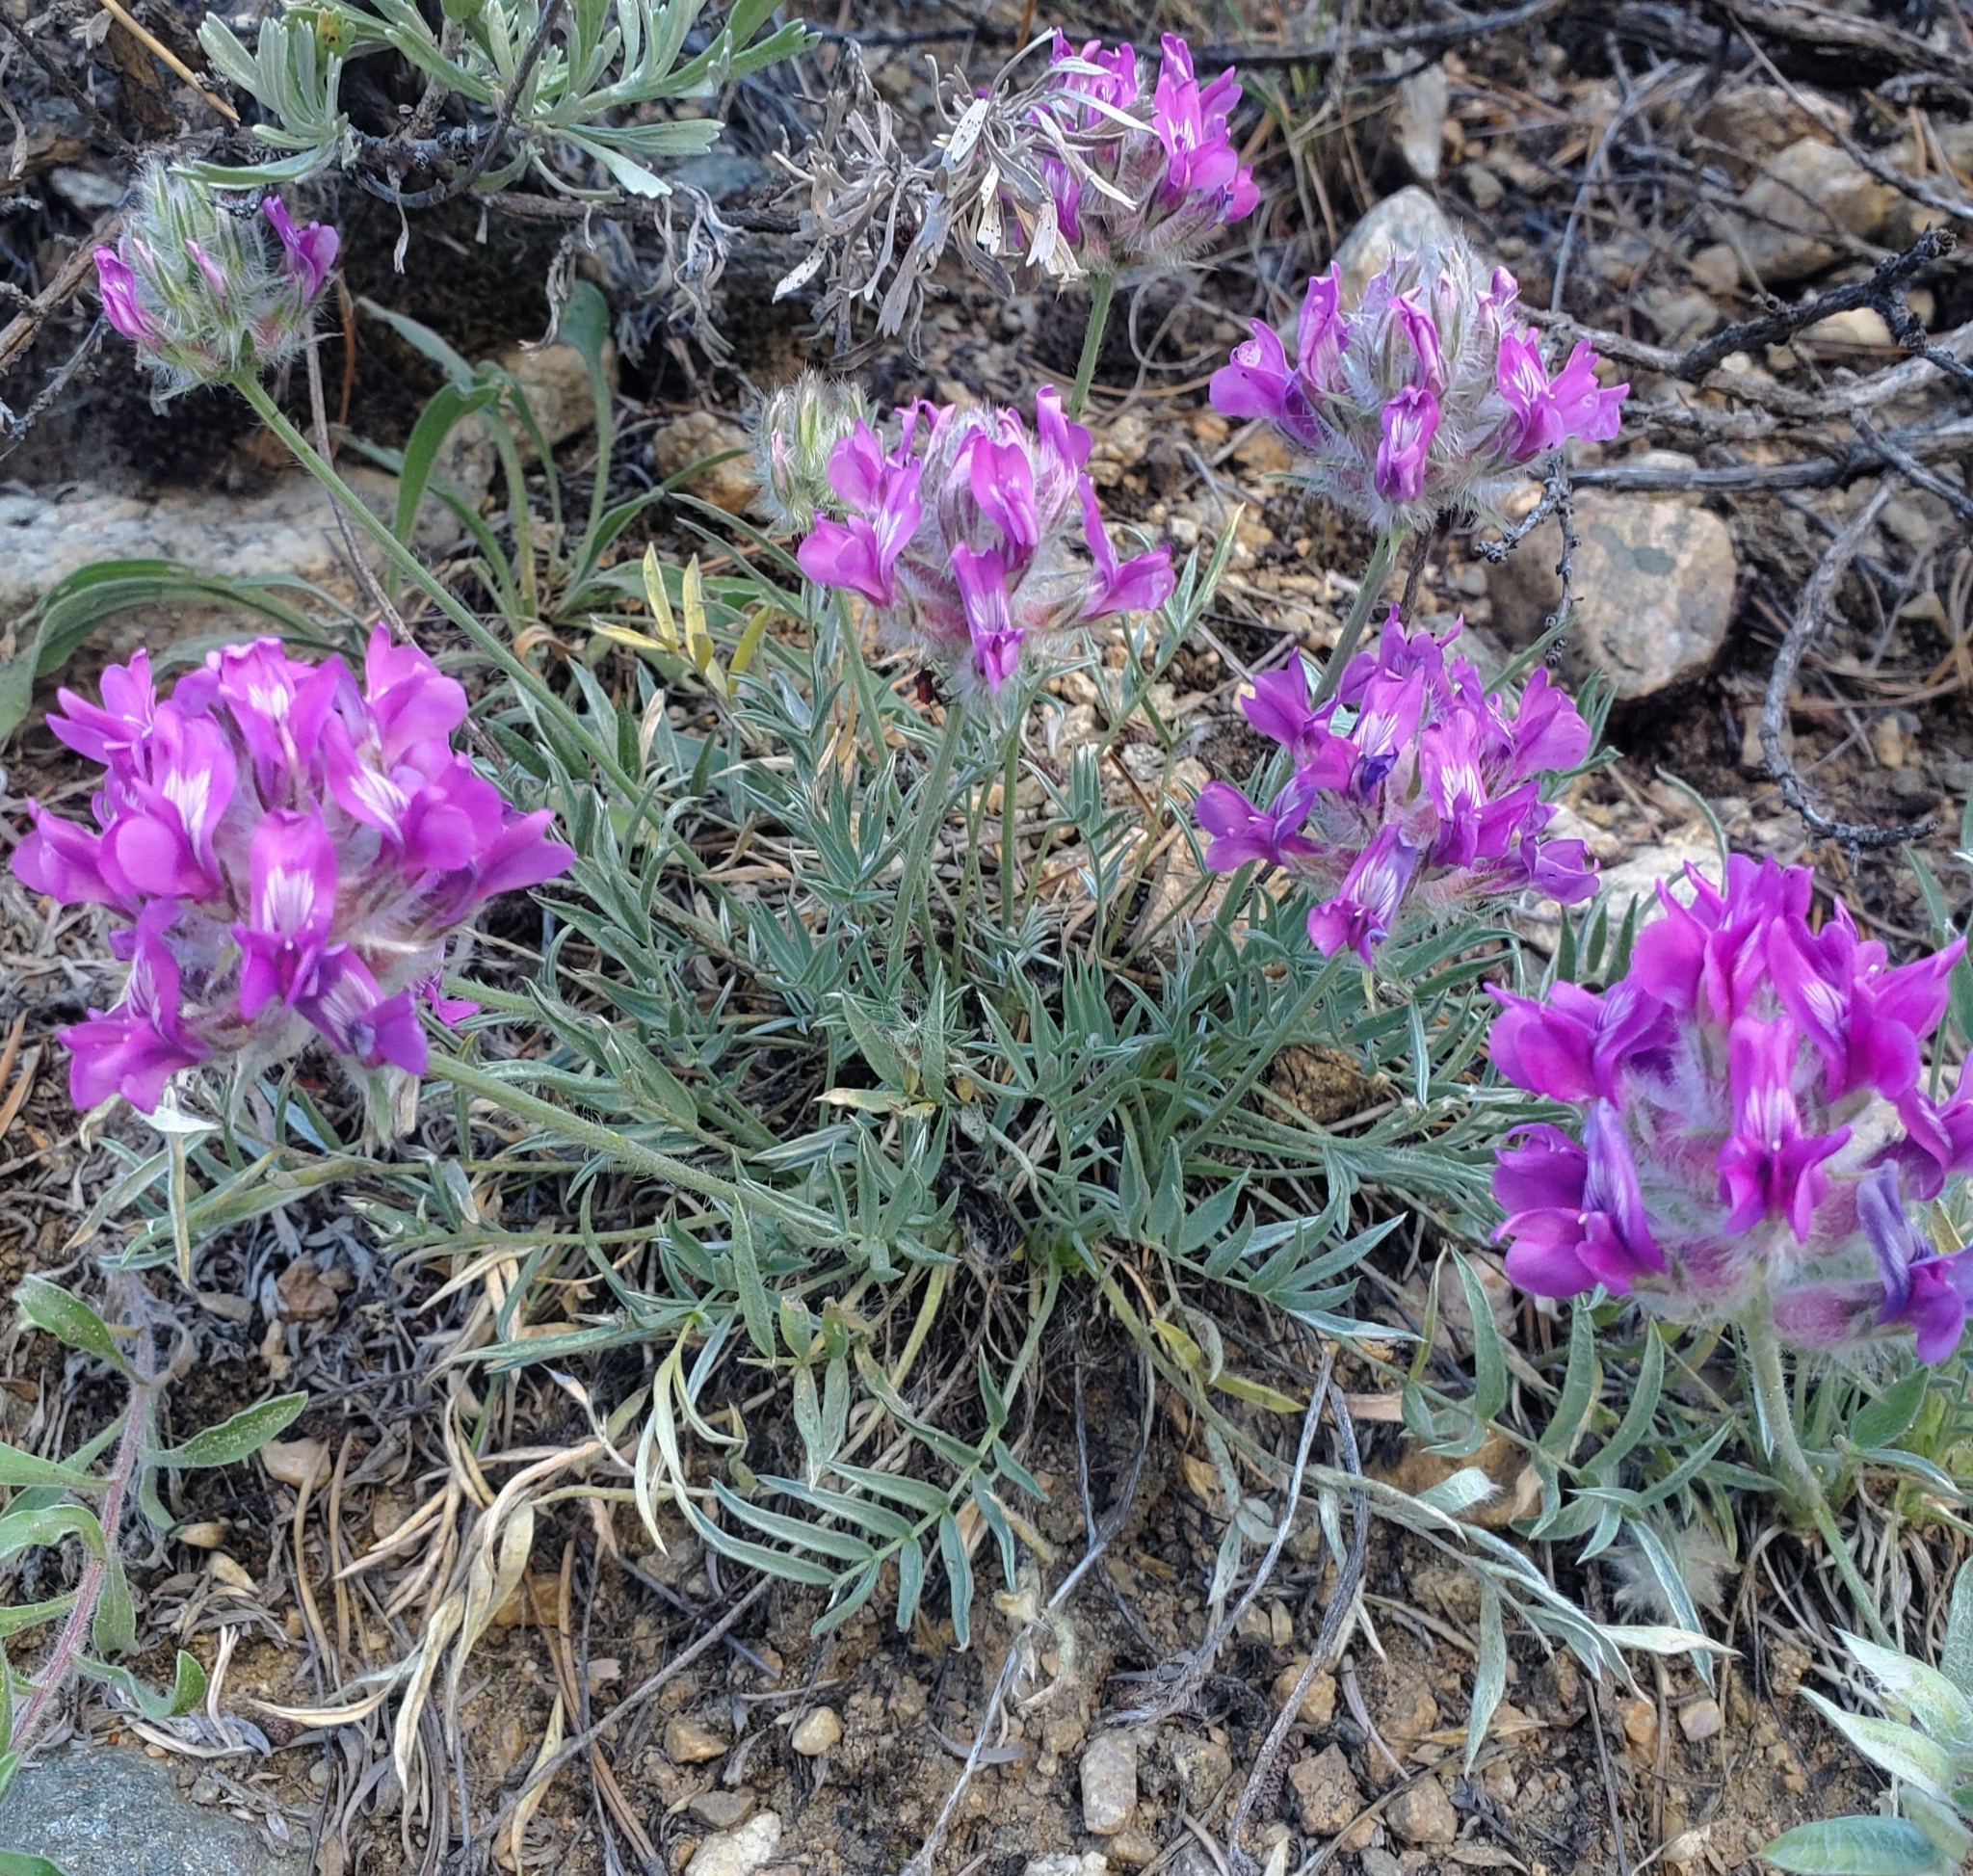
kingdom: Plantae
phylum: Tracheophyta
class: Magnoliopsida
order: Fabales
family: Fabaceae
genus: Oxytropis
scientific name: Oxytropis besseyi
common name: Bessey's locoweed
